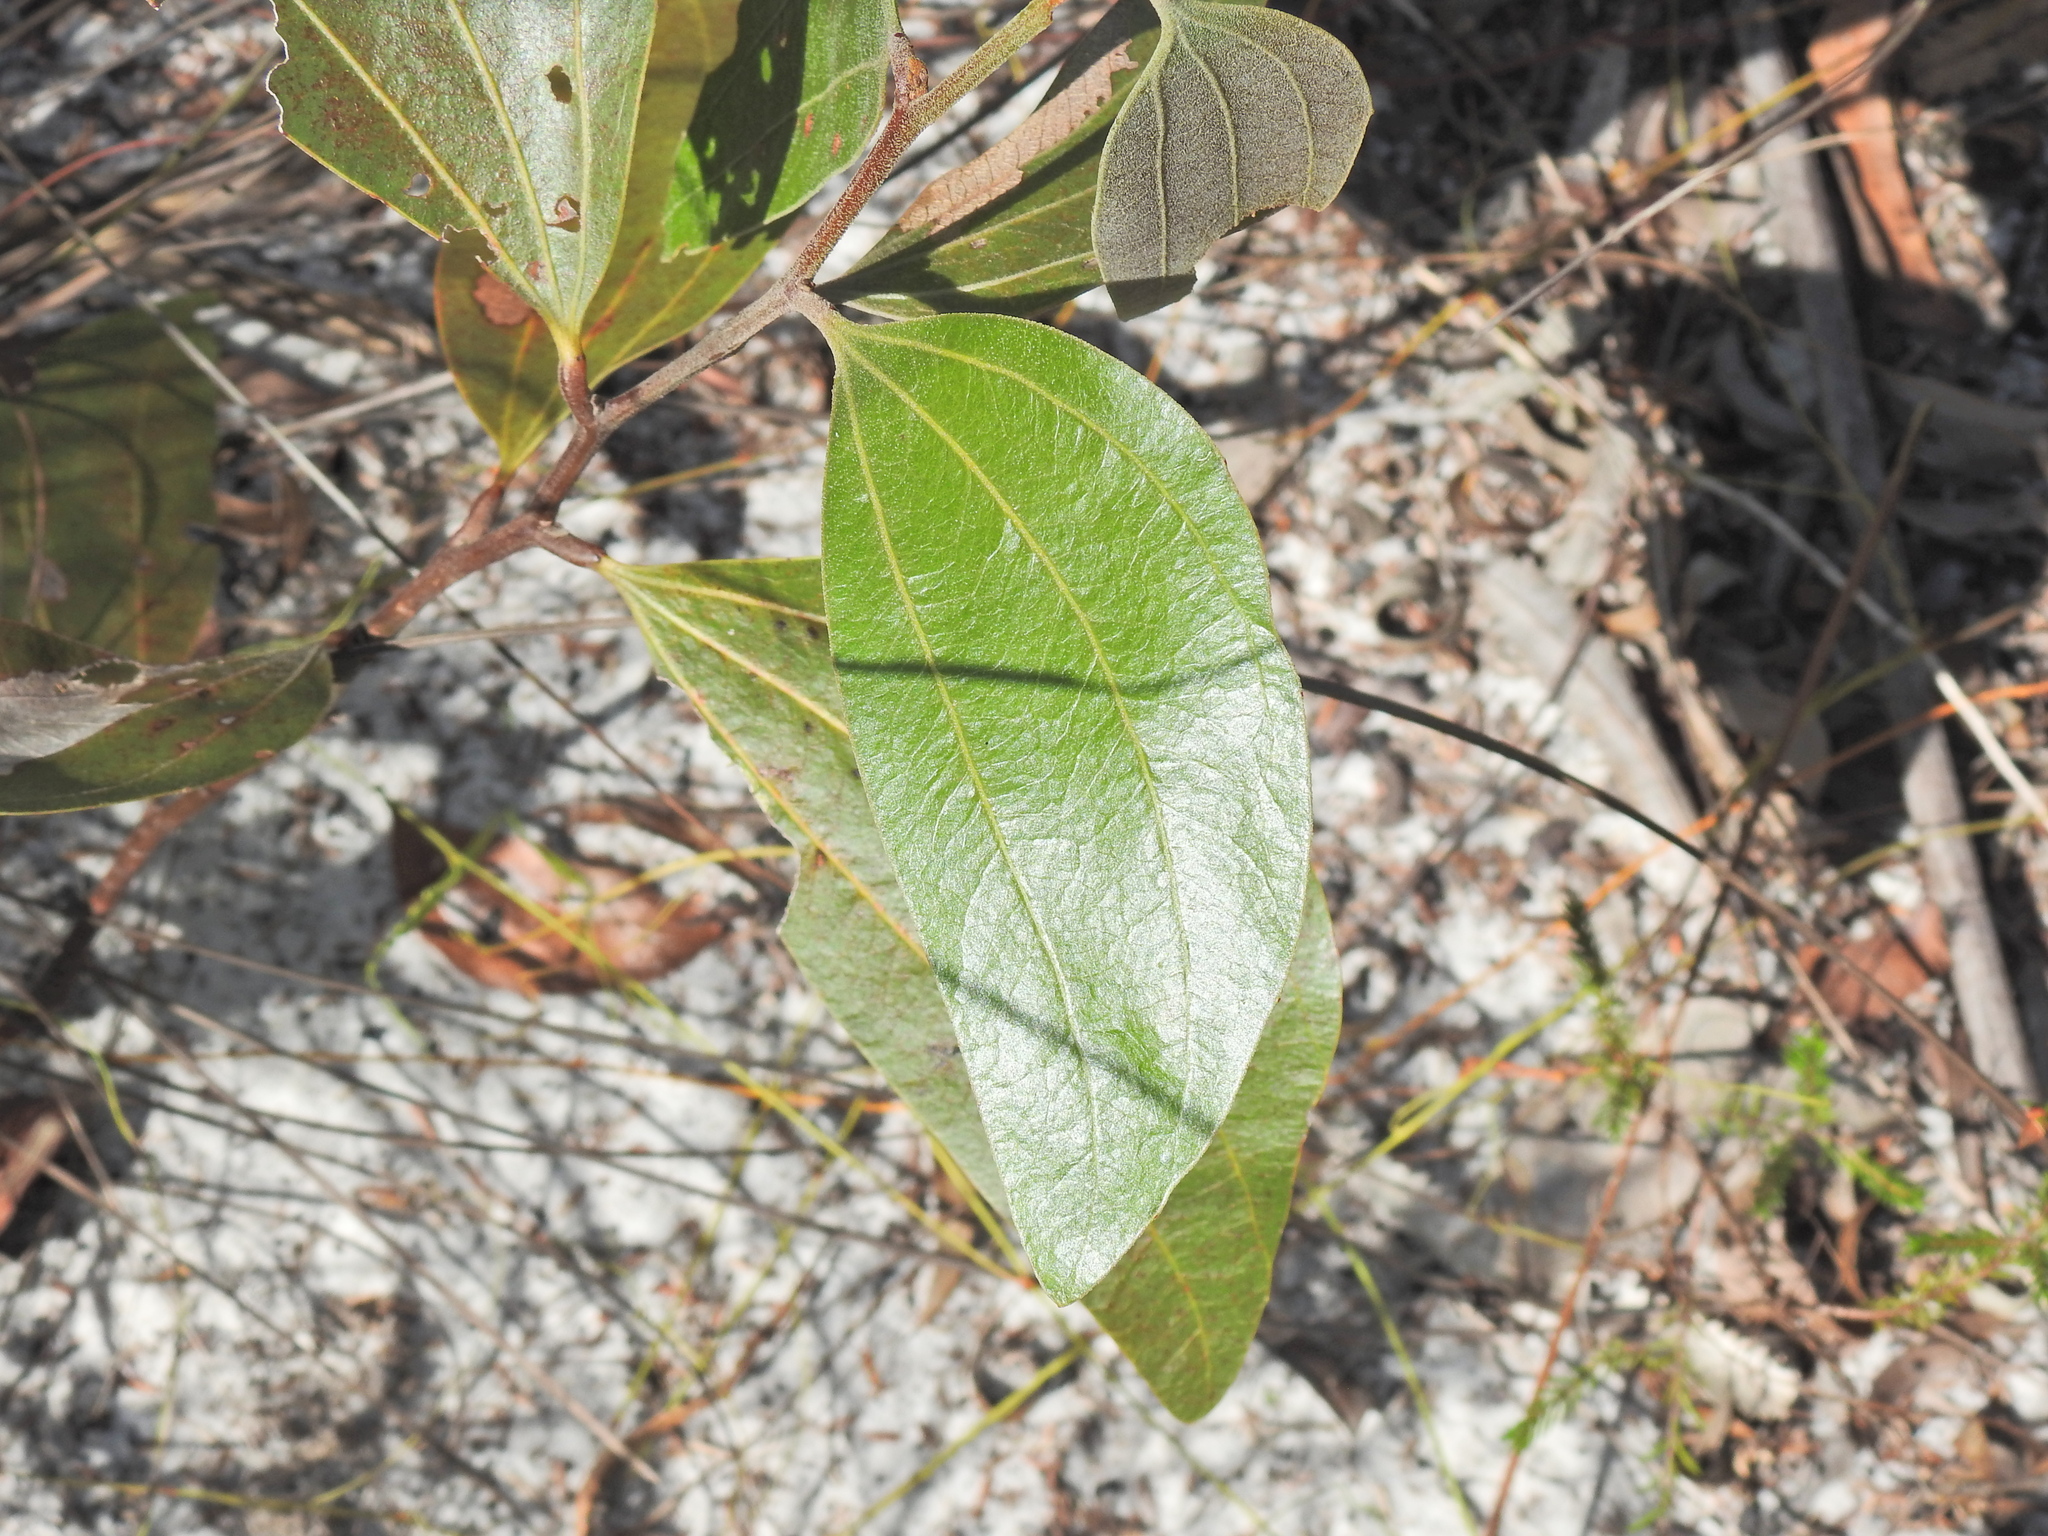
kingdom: Plantae
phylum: Tracheophyta
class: Magnoliopsida
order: Fabales
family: Fabaceae
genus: Acacia
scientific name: Acacia flavescens
